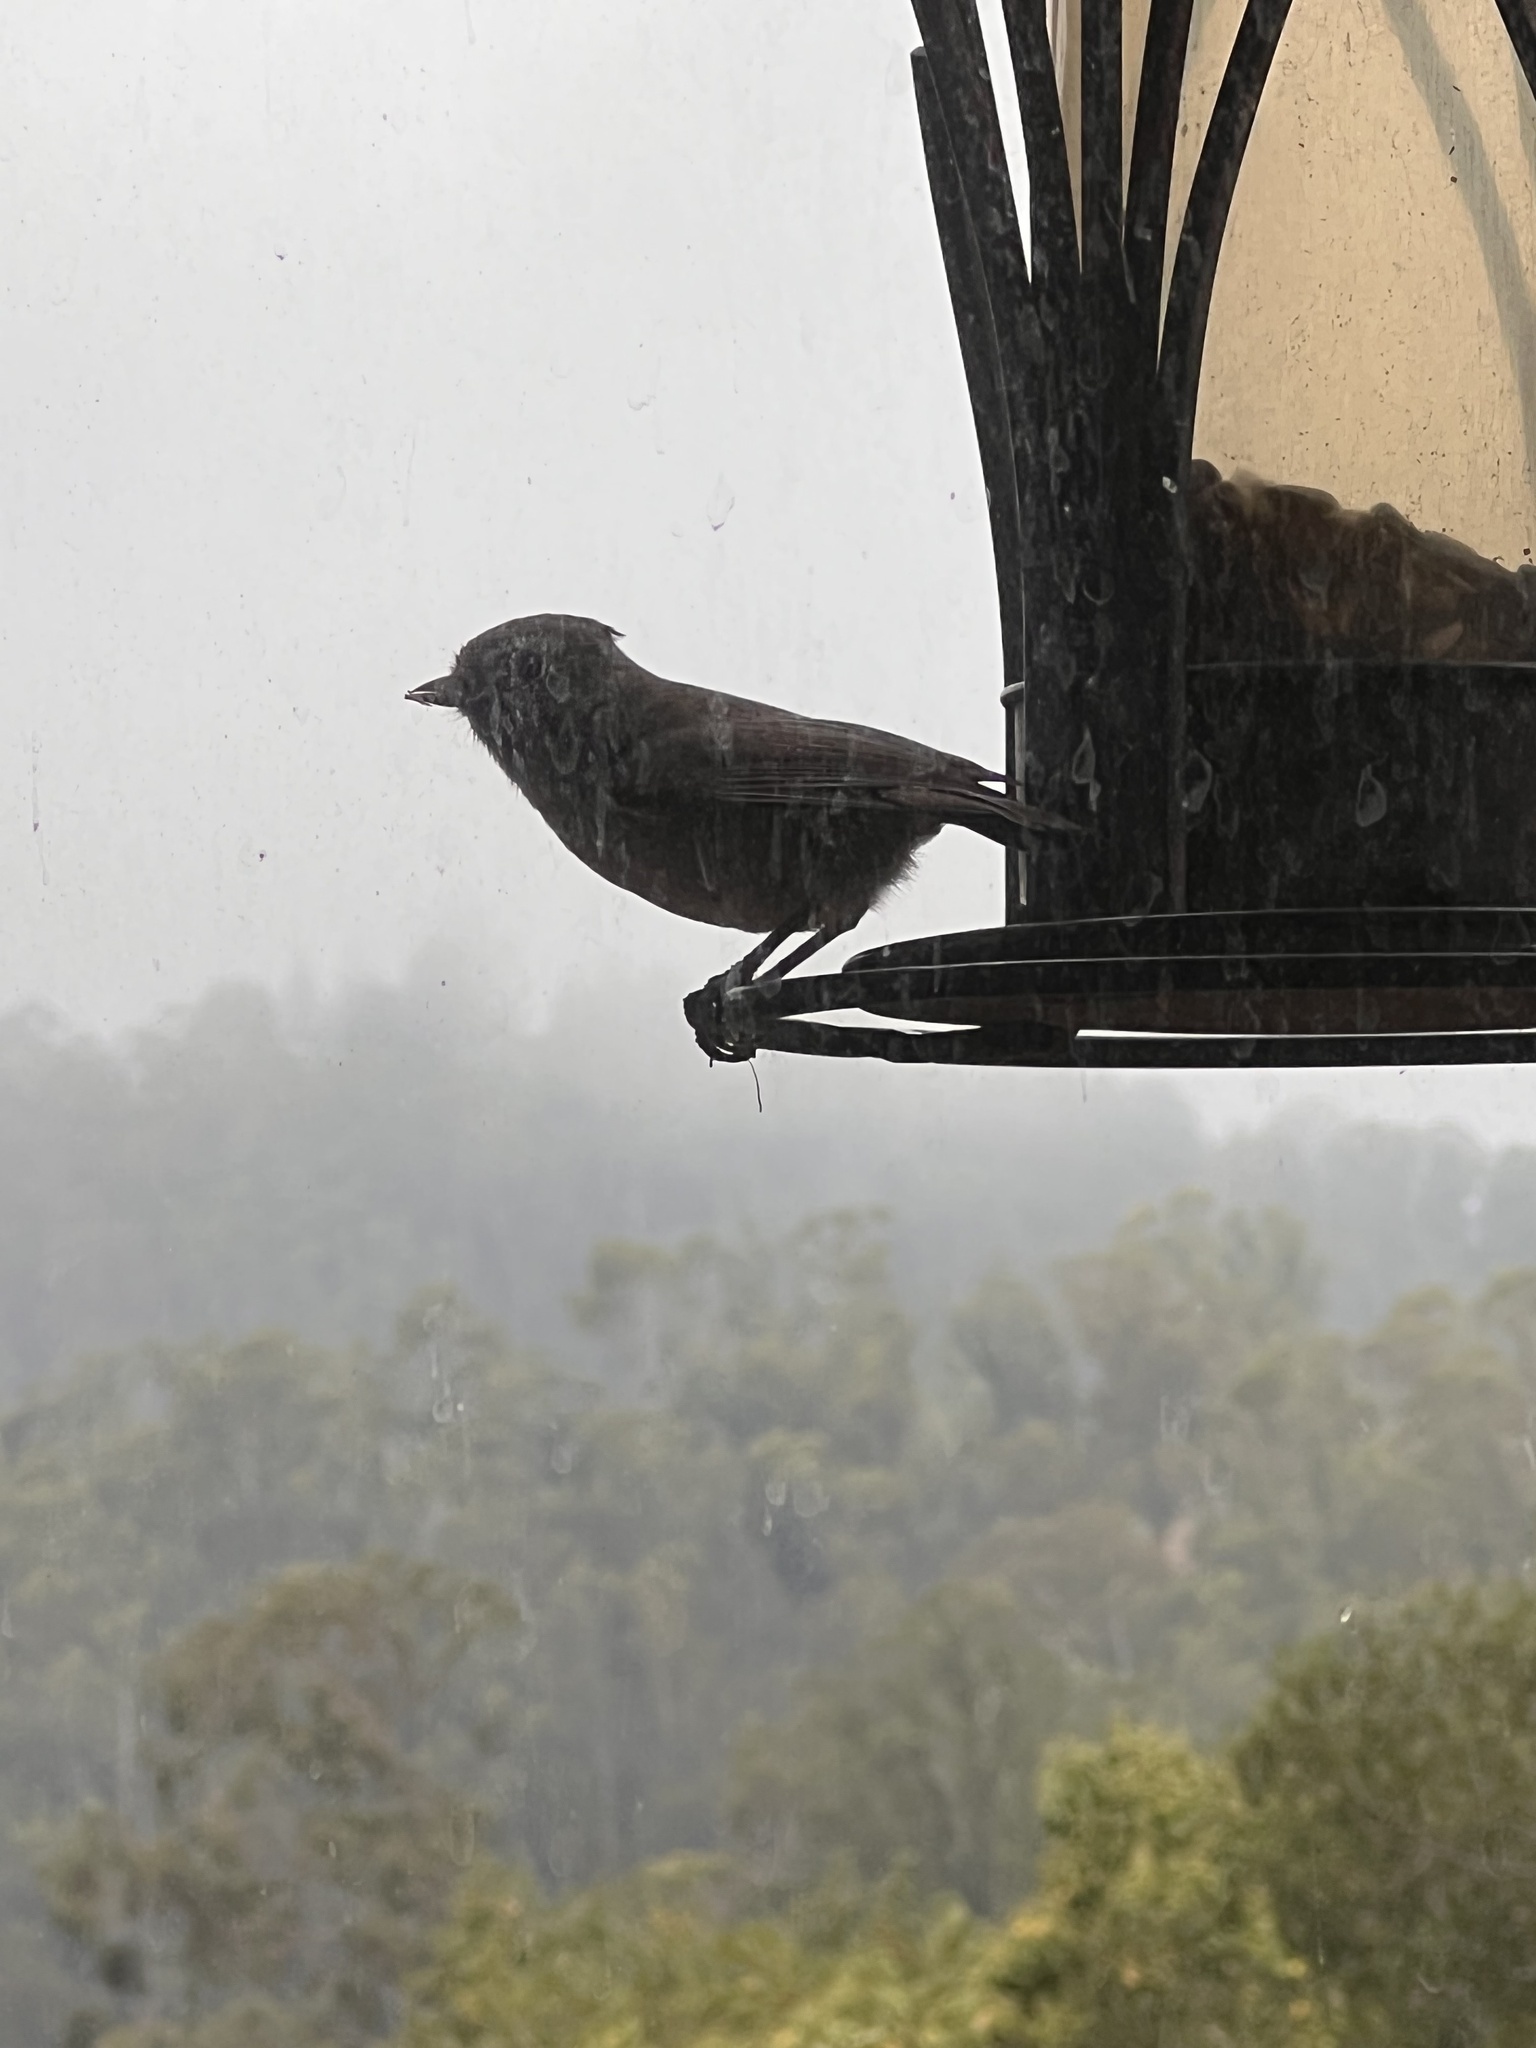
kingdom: Animalia
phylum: Chordata
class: Aves
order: Passeriformes
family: Paridae
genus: Baeolophus
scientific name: Baeolophus inornatus
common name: Oak titmouse
